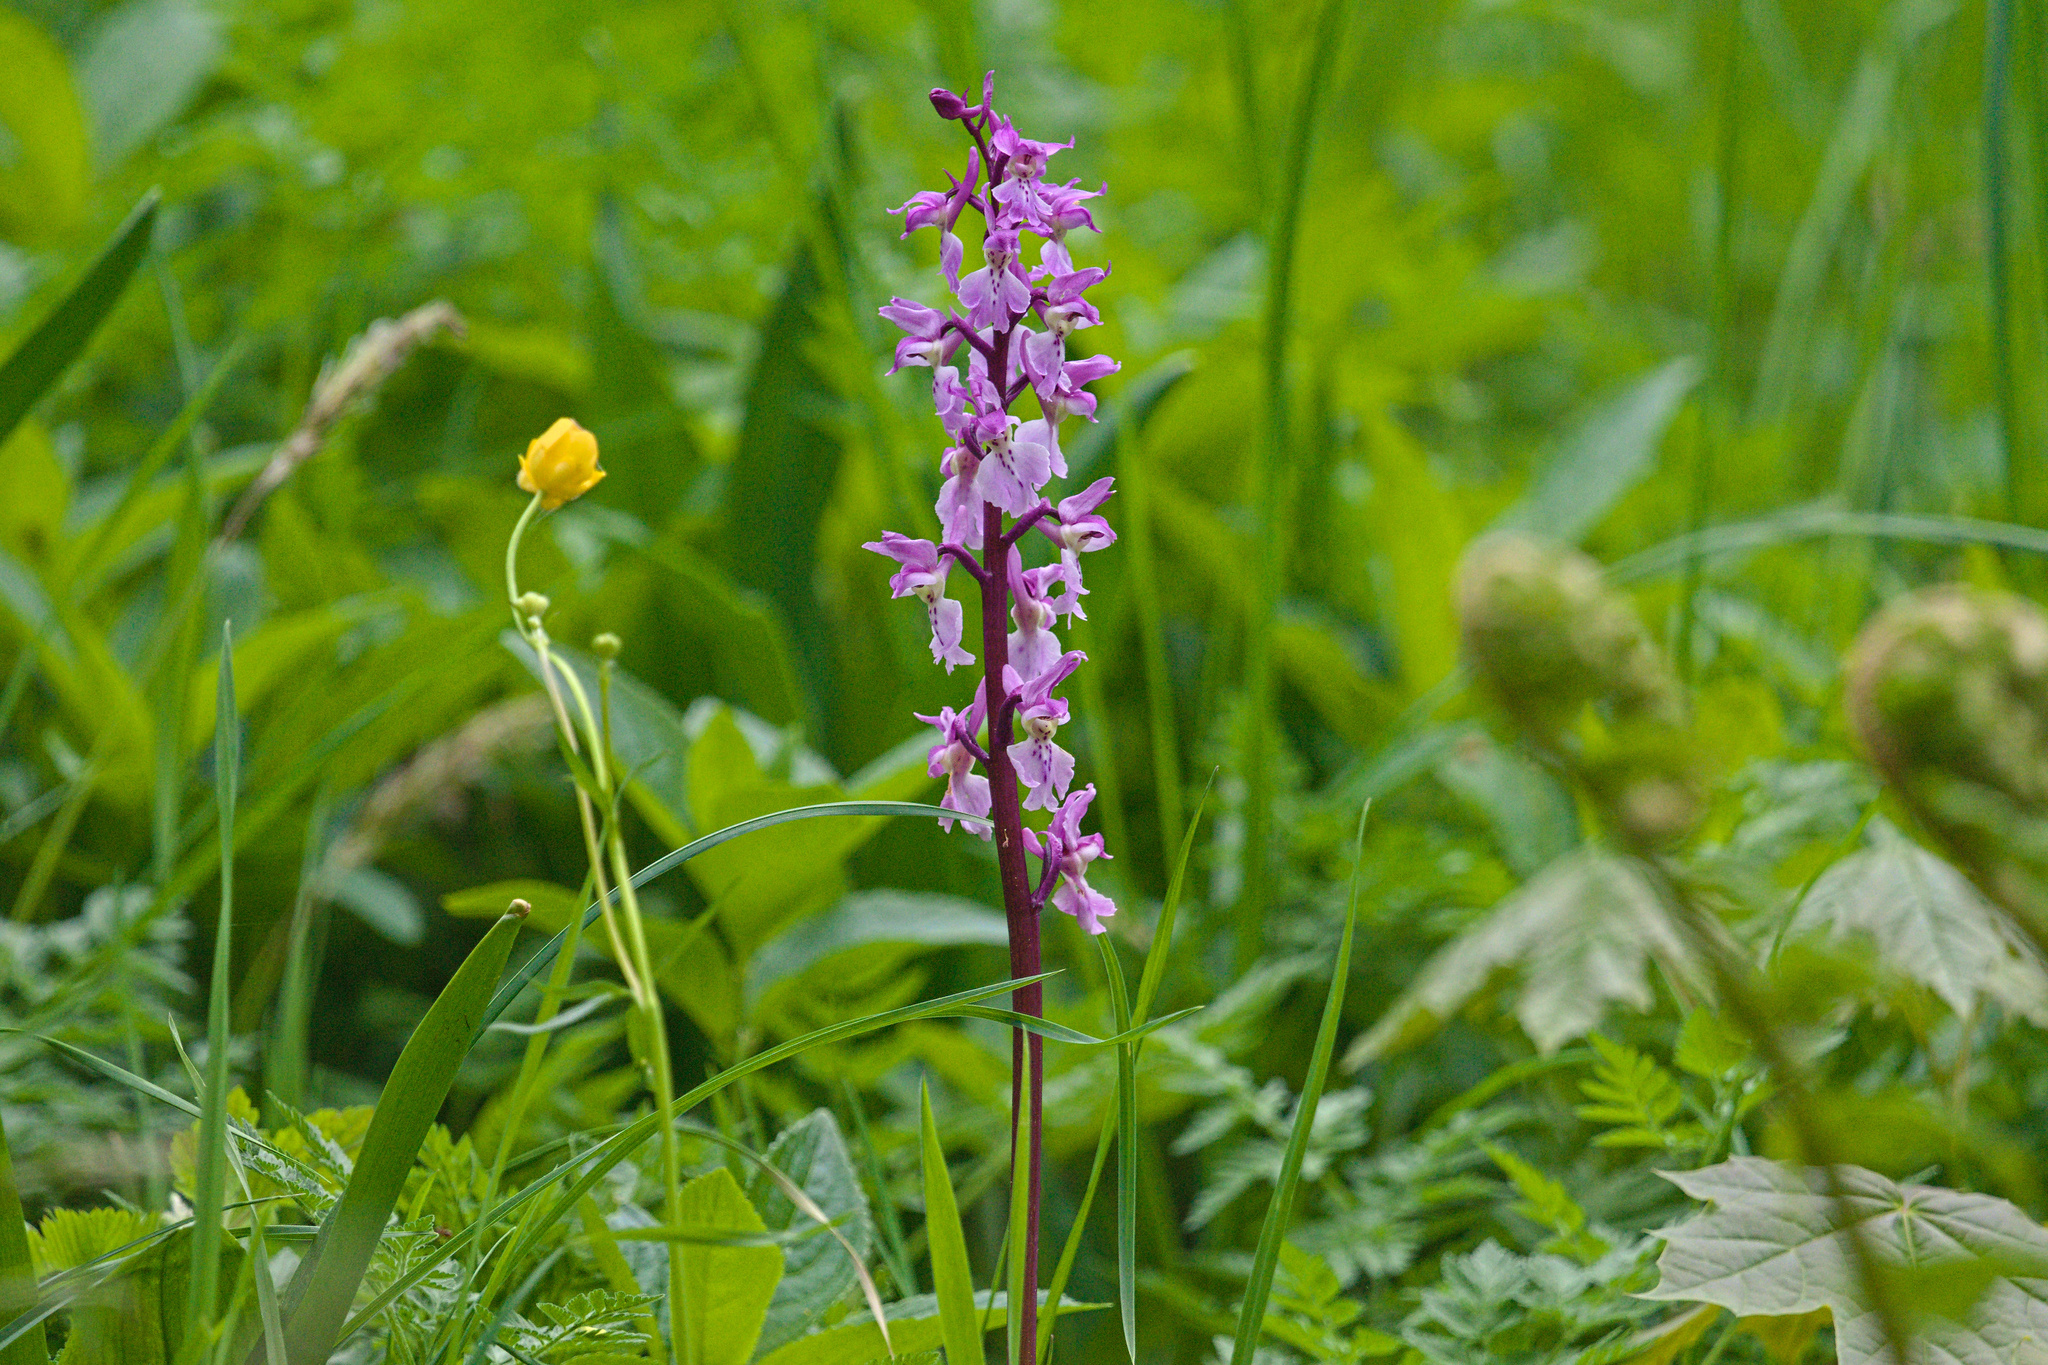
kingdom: Plantae
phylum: Tracheophyta
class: Liliopsida
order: Asparagales
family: Orchidaceae
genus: Orchis
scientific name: Orchis mascula
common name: Early-purple orchid
